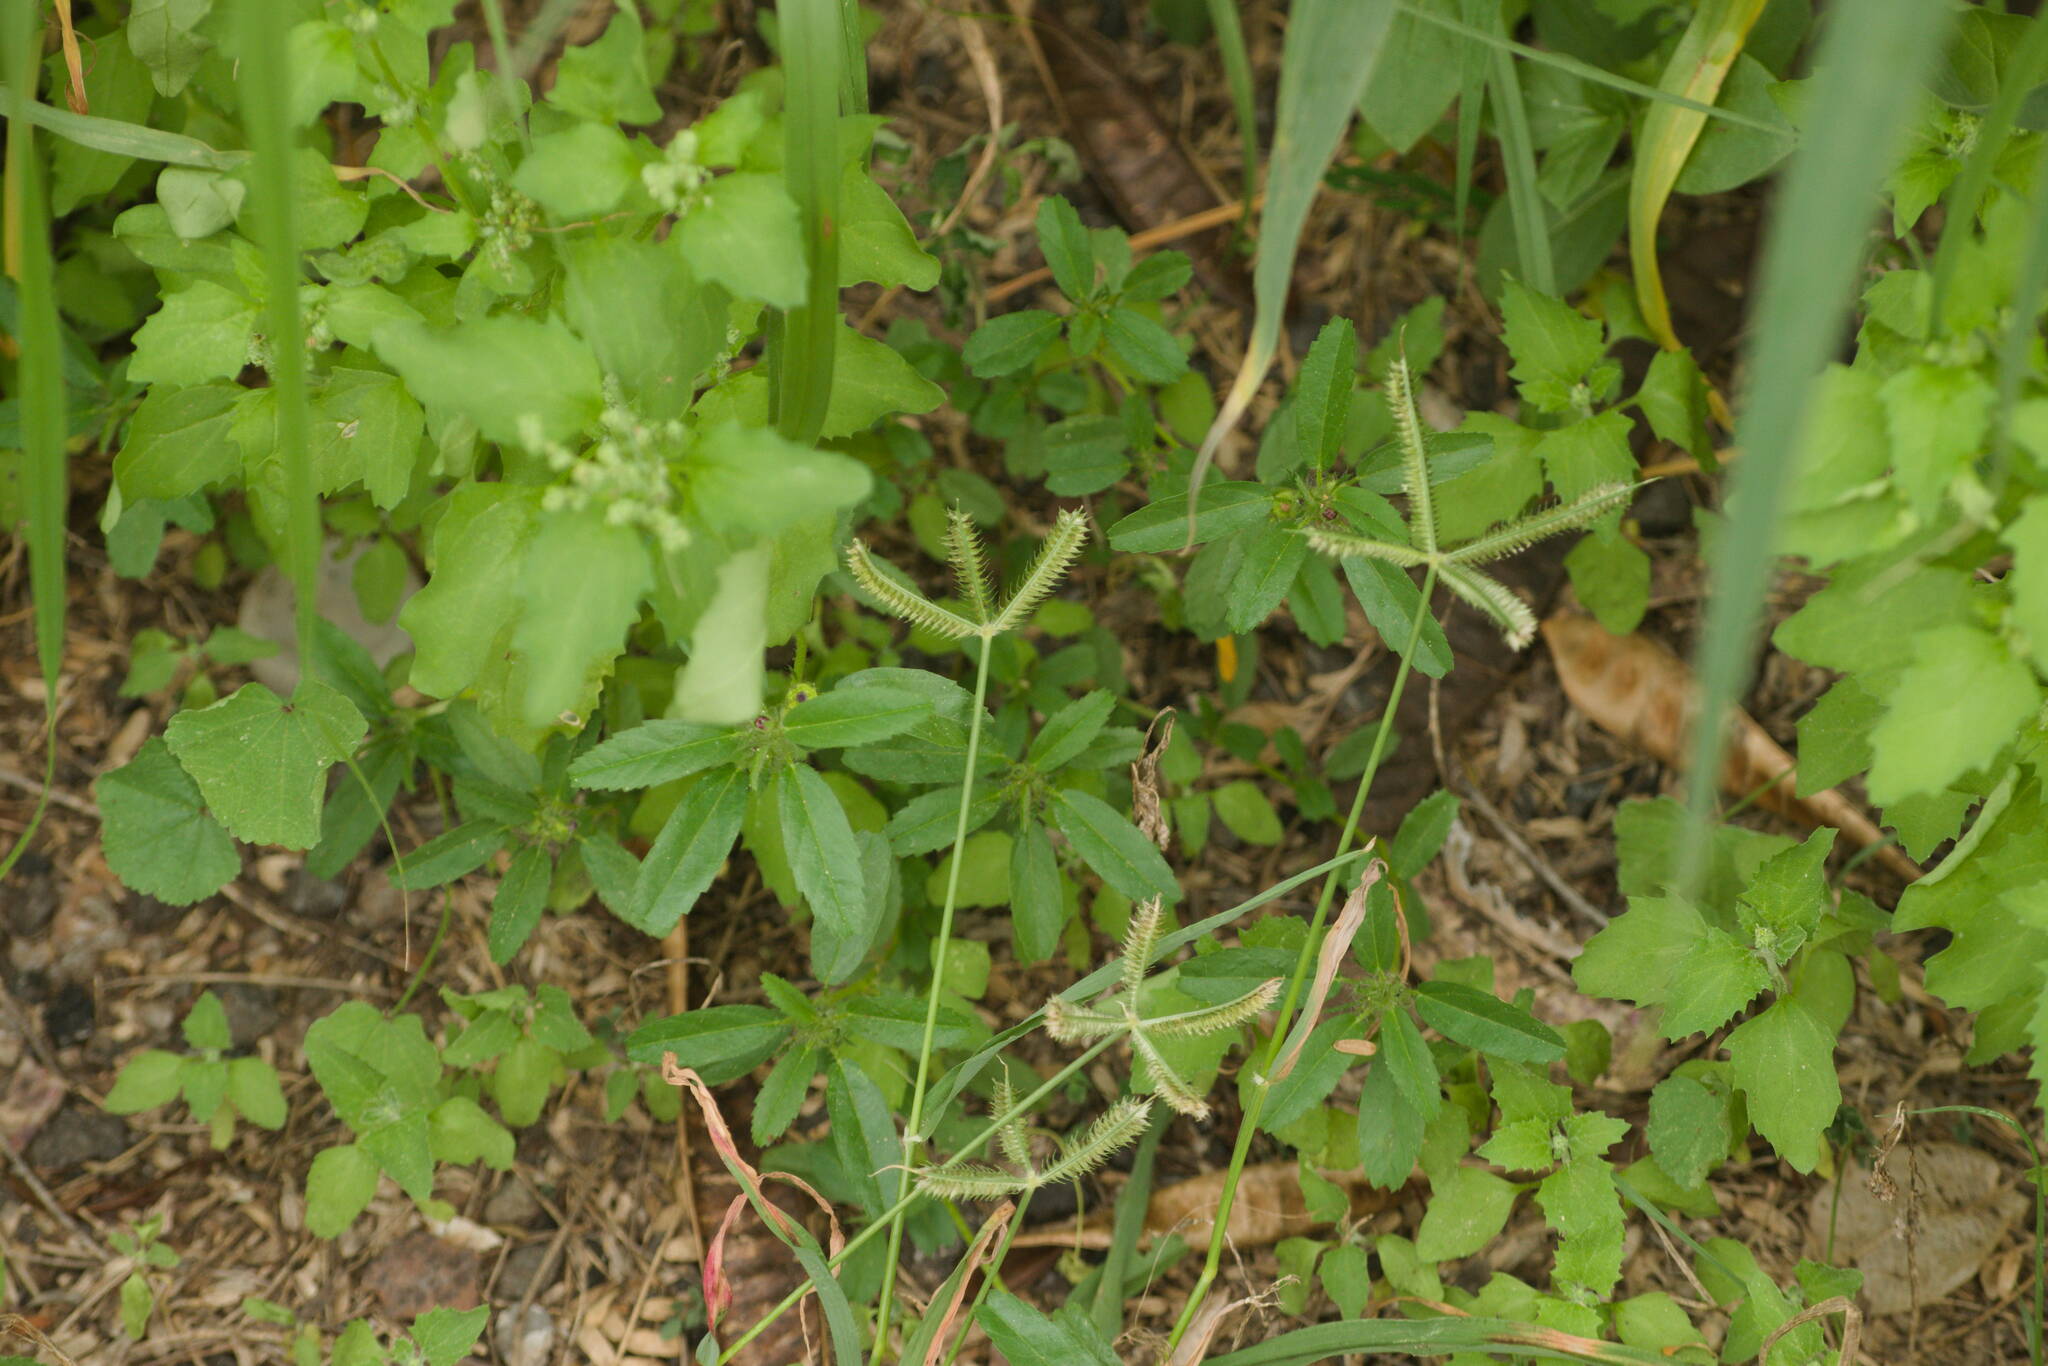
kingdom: Plantae
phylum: Tracheophyta
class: Liliopsida
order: Poales
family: Poaceae
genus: Dactyloctenium
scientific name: Dactyloctenium aegyptium
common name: Egyptian grass
